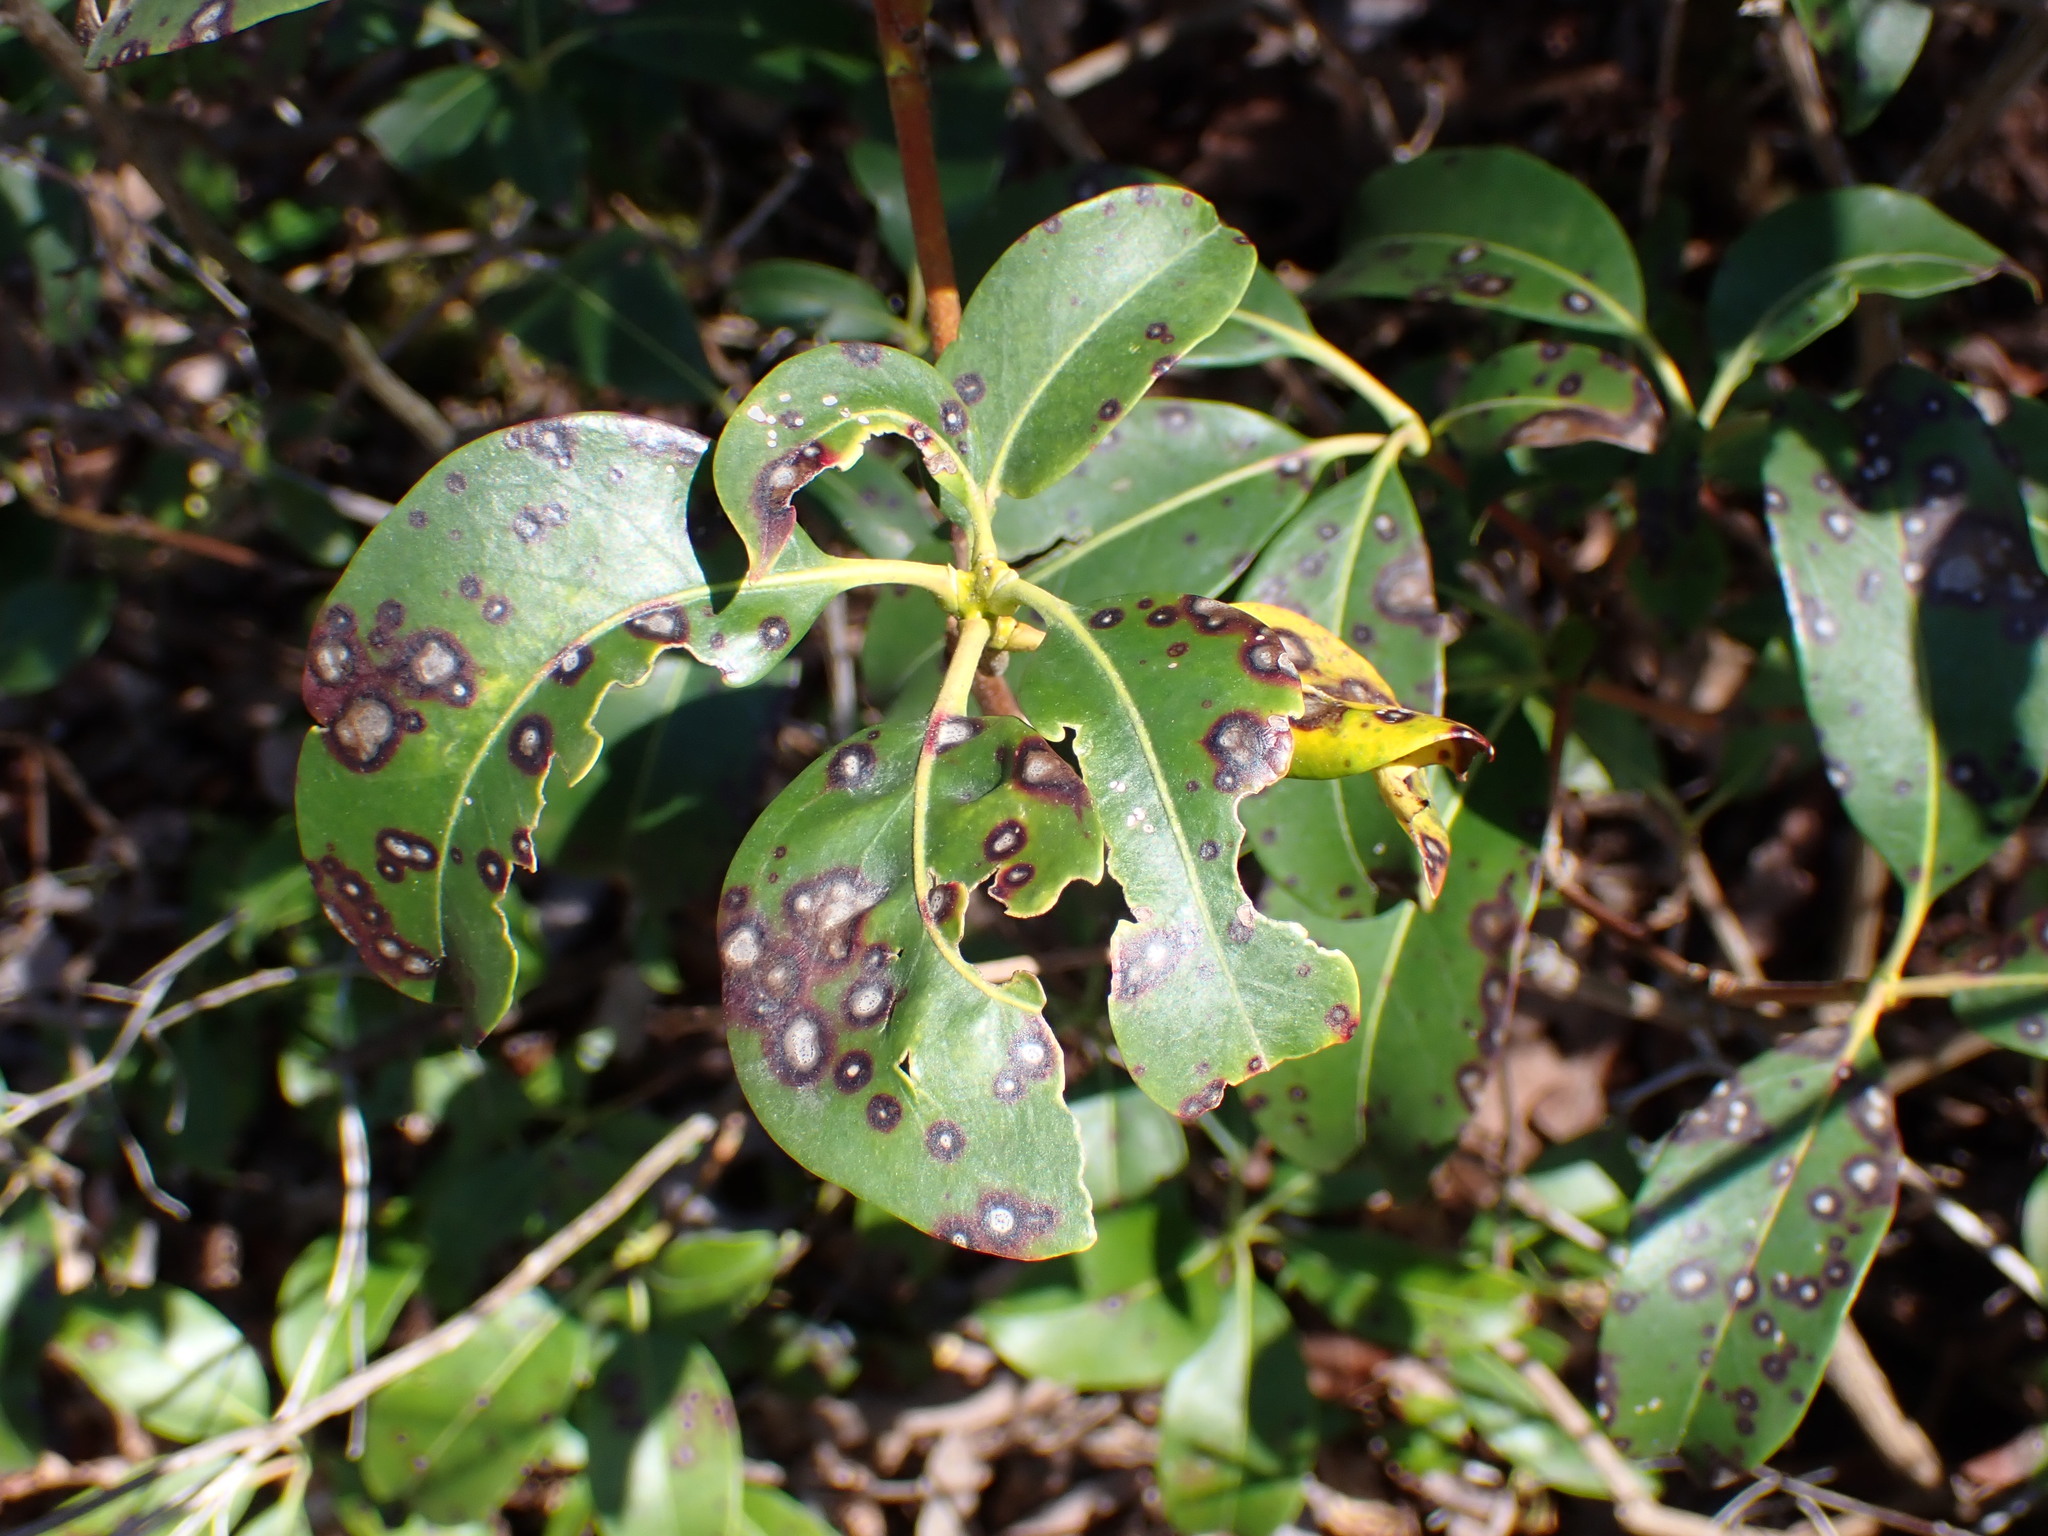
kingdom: Plantae
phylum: Tracheophyta
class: Magnoliopsida
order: Ericales
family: Ericaceae
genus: Kalmia
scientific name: Kalmia latifolia
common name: Mountain-laurel
